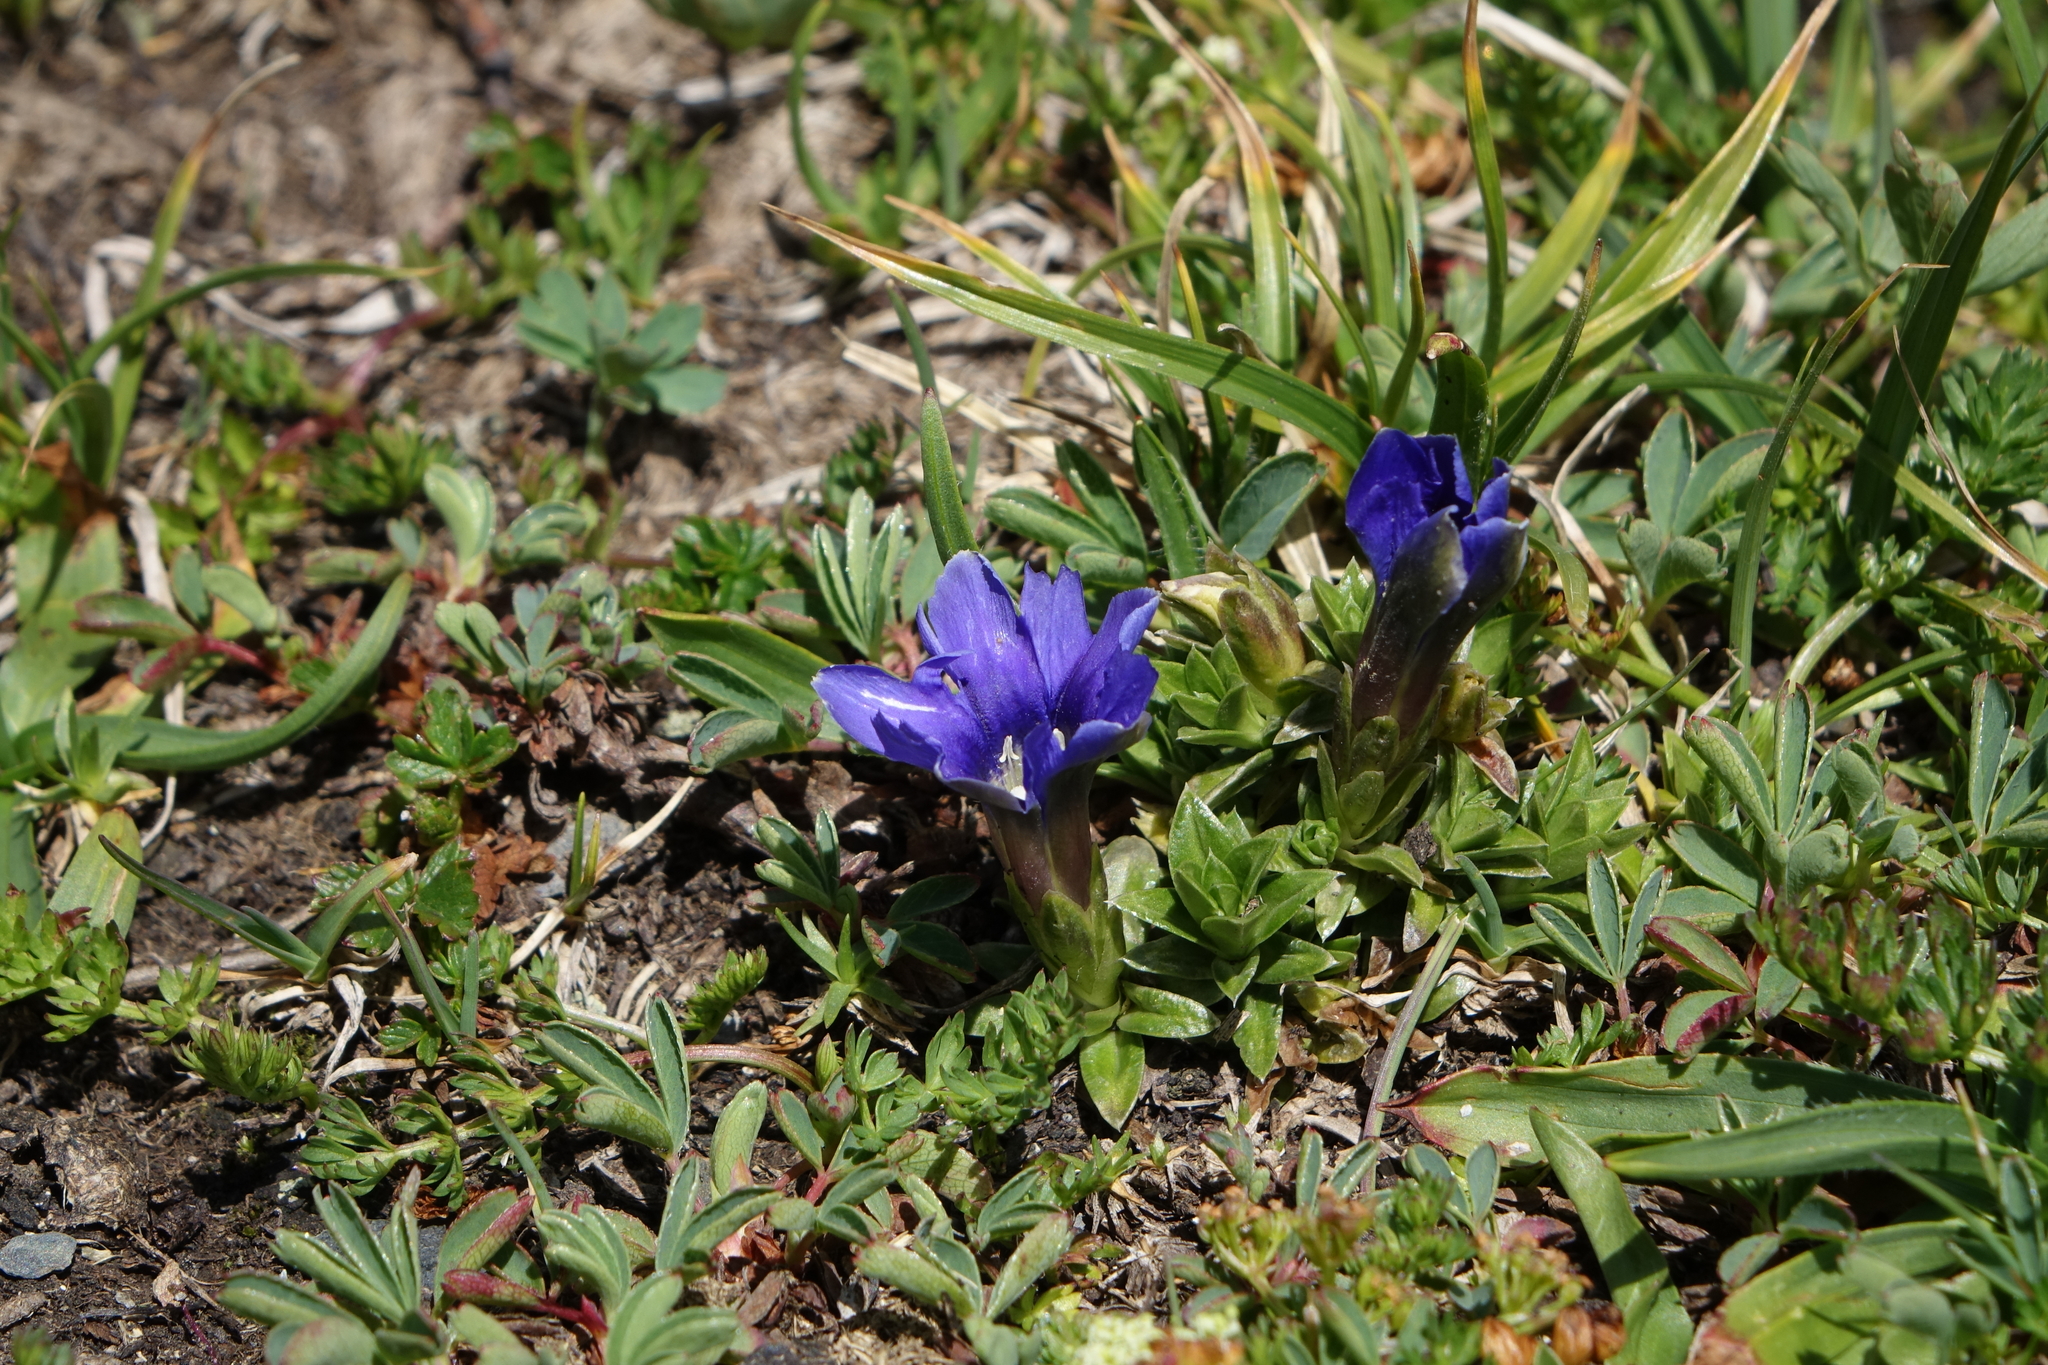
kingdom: Plantae
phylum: Tracheophyta
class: Magnoliopsida
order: Gentianales
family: Gentianaceae
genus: Gentiana
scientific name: Gentiana dshimilensis
